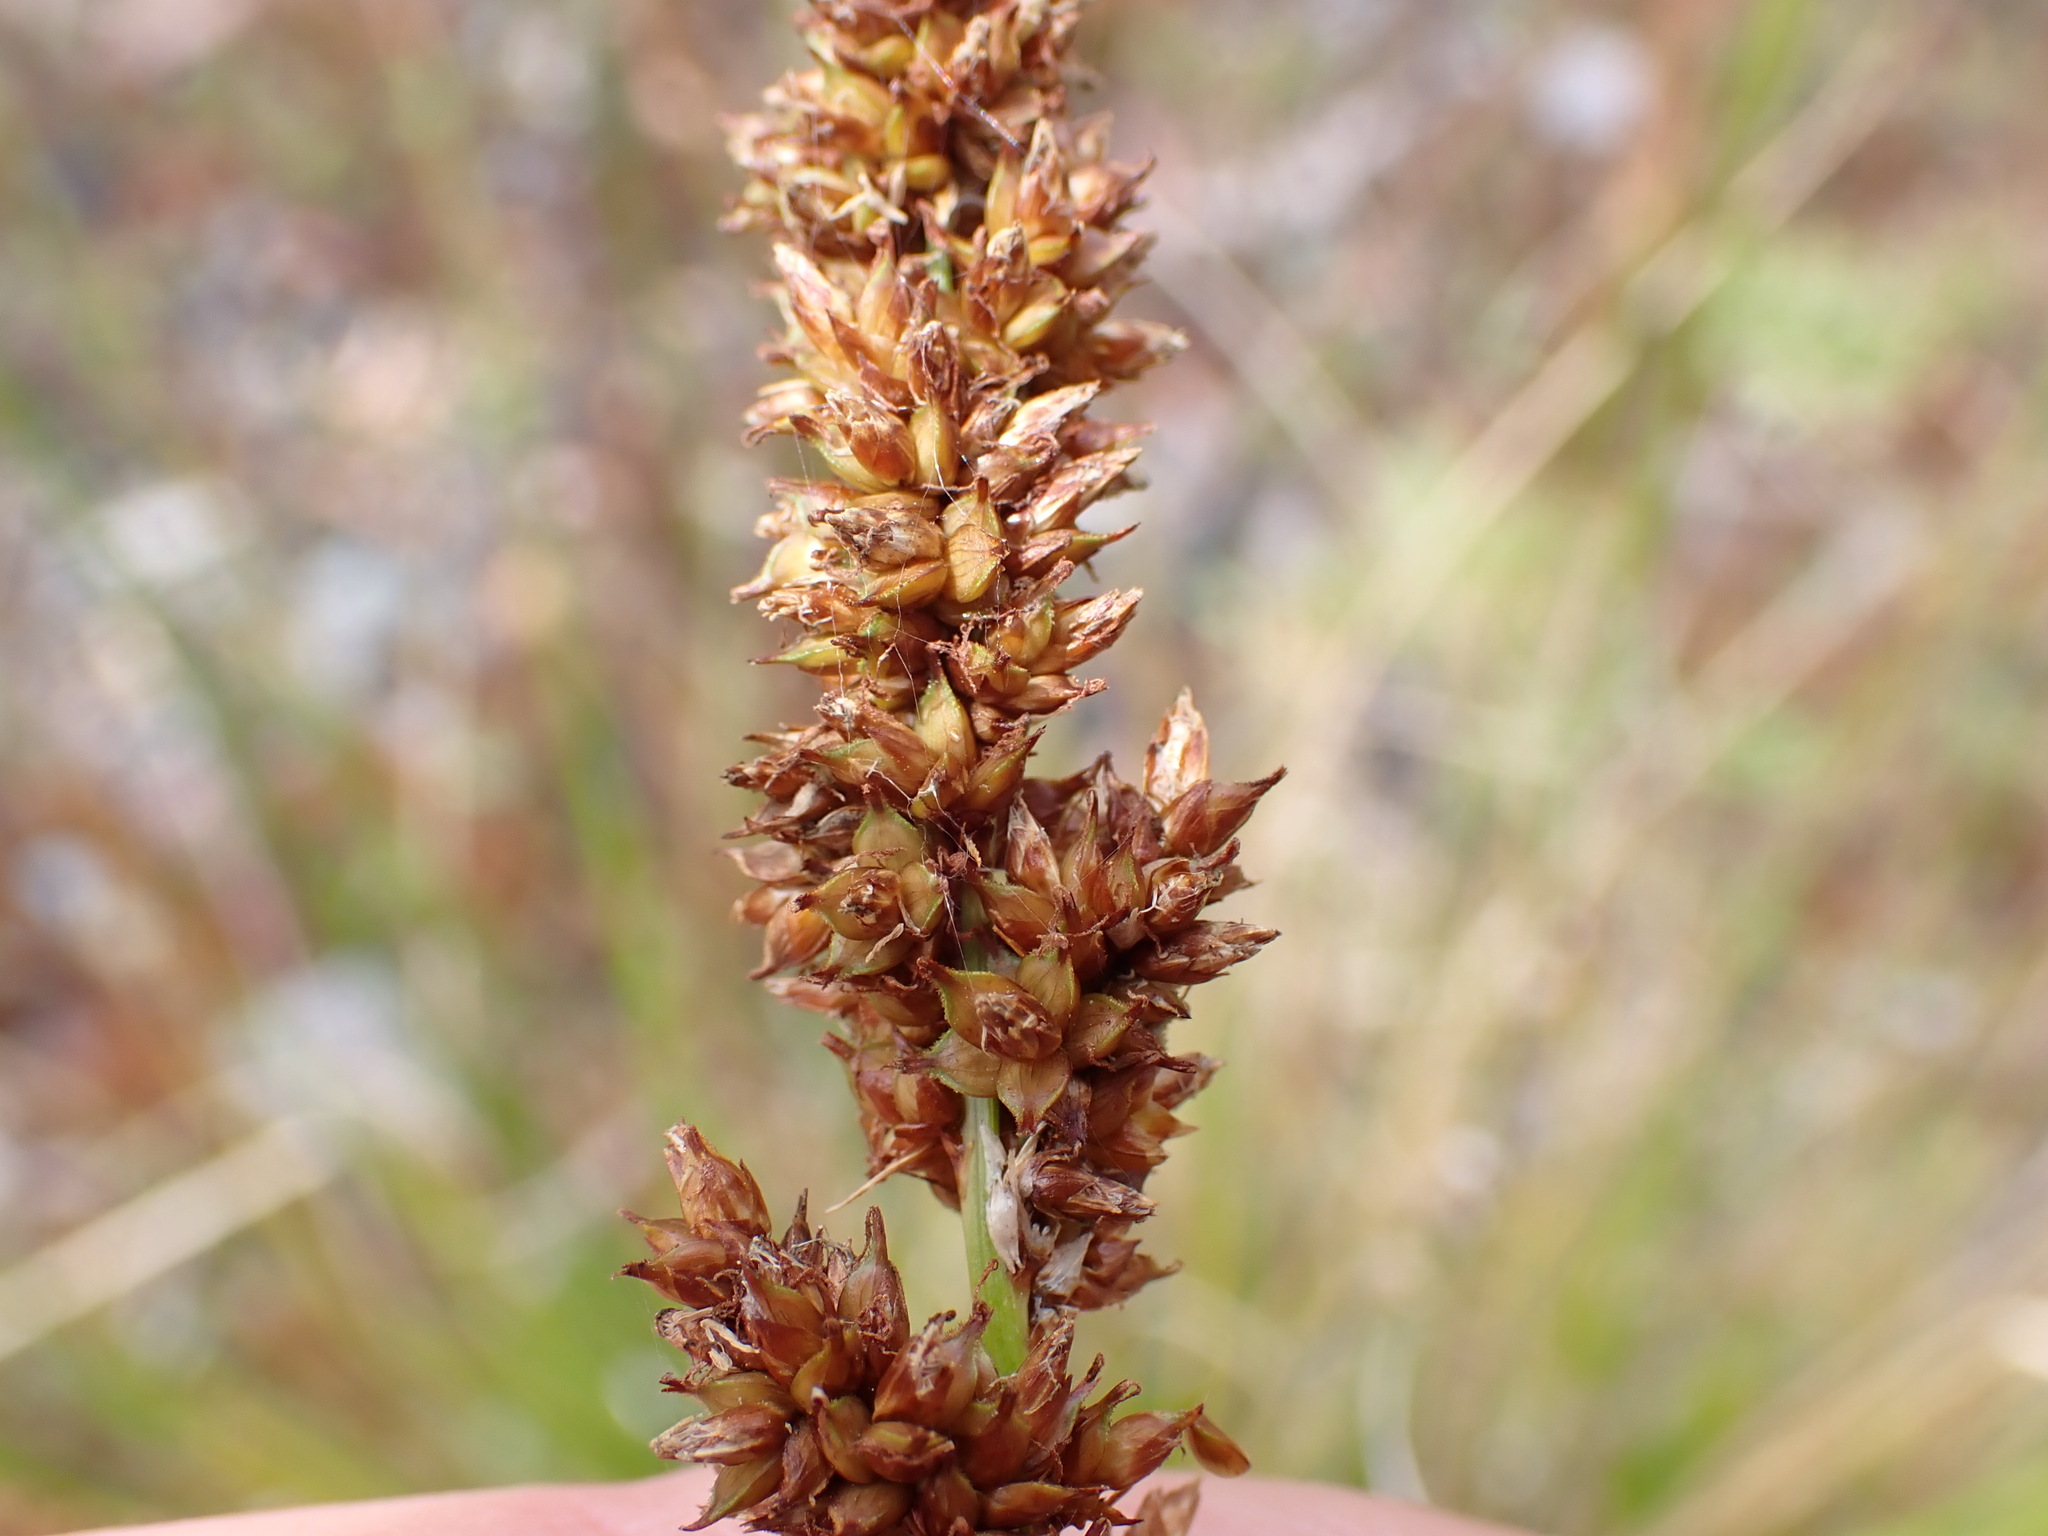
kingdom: Plantae
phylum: Tracheophyta
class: Liliopsida
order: Poales
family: Cyperaceae
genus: Carex
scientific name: Carex appressa
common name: Tussock sedge
